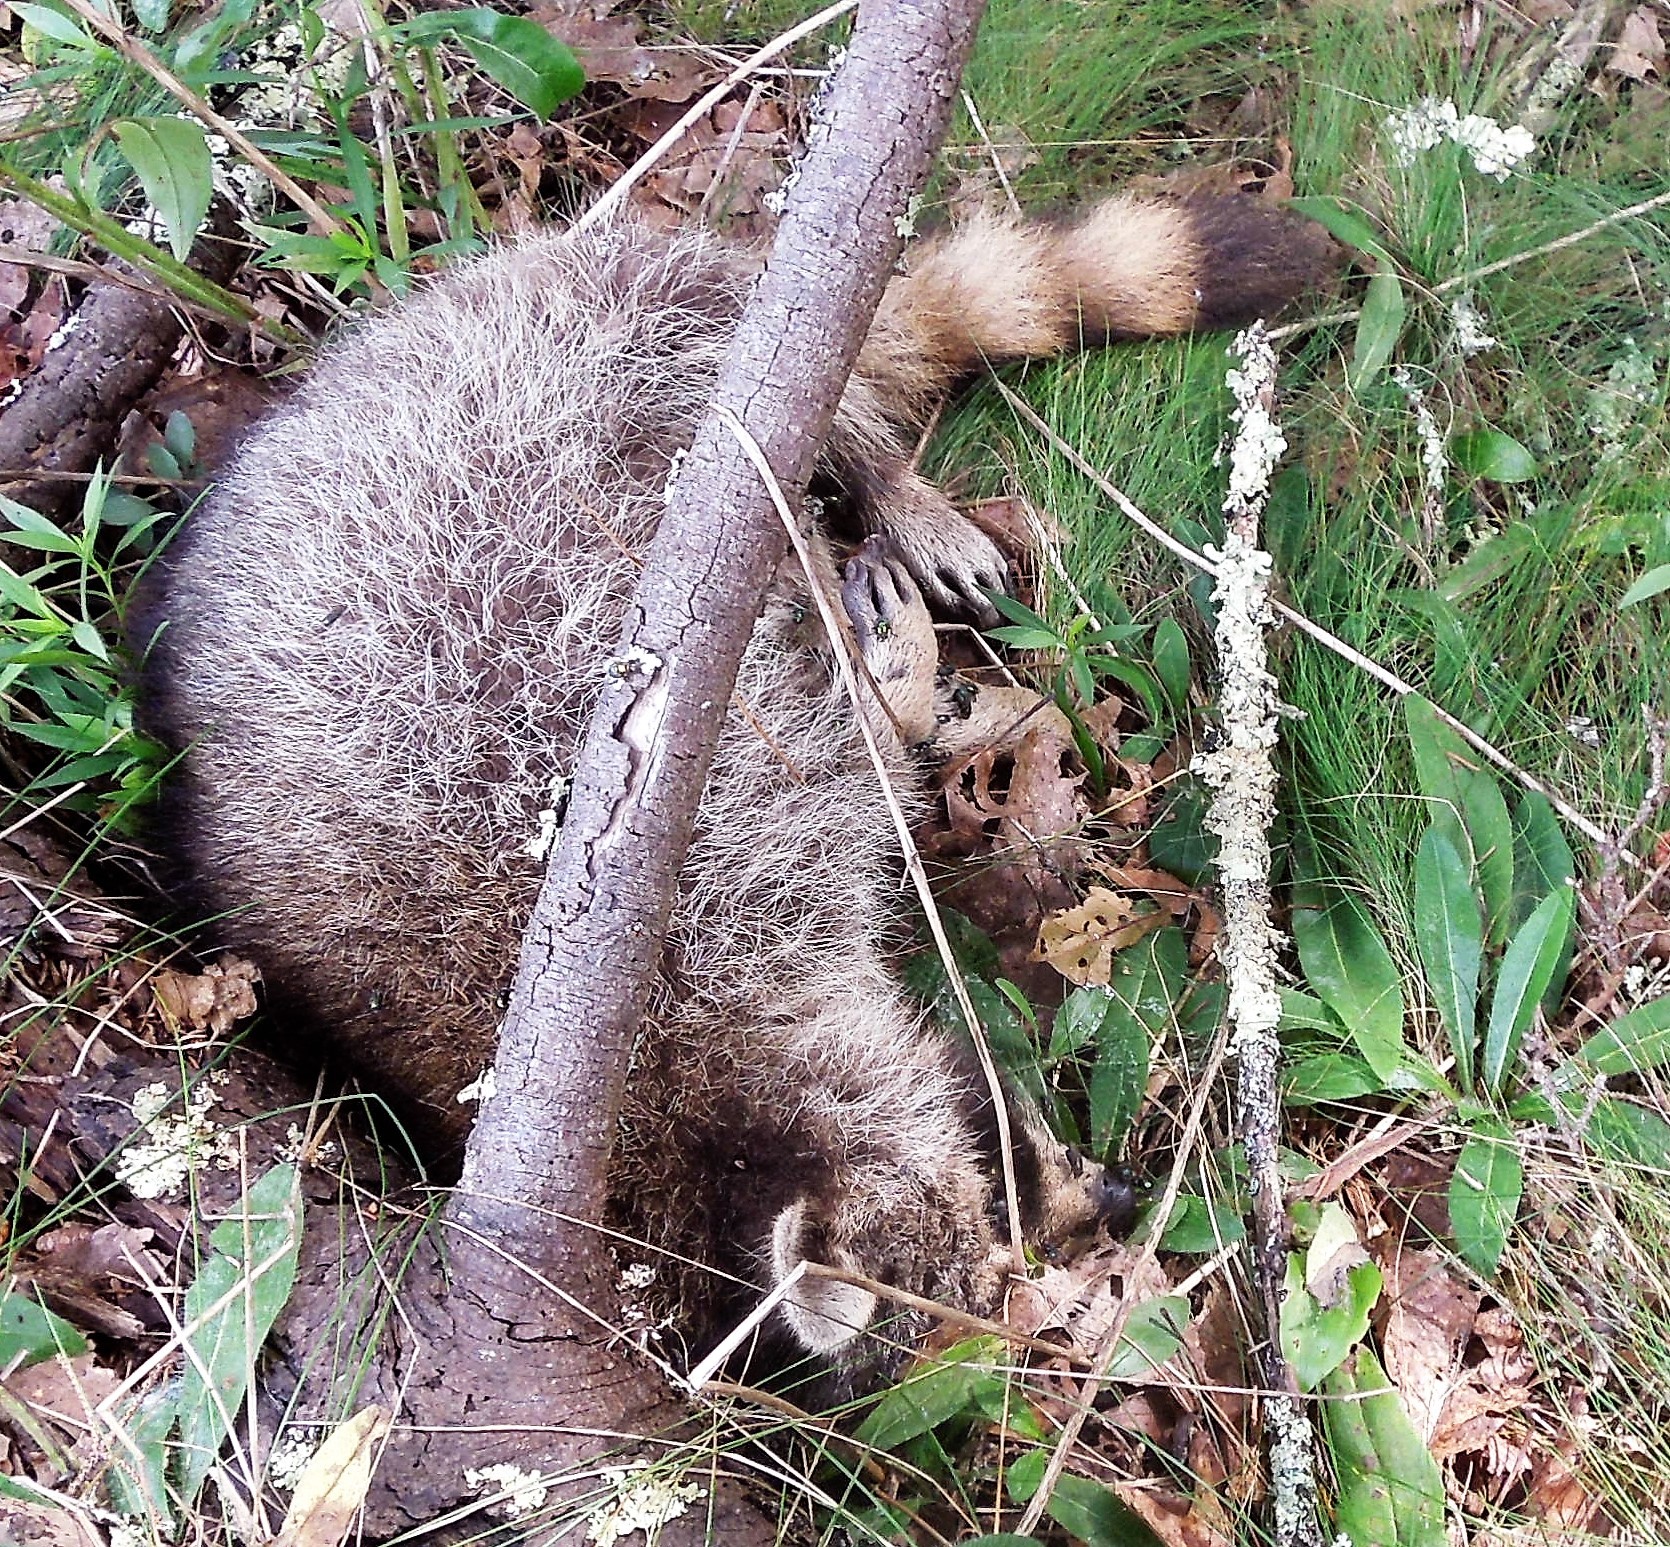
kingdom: Animalia
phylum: Chordata
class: Mammalia
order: Carnivora
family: Procyonidae
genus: Procyon
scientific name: Procyon lotor
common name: Raccoon
